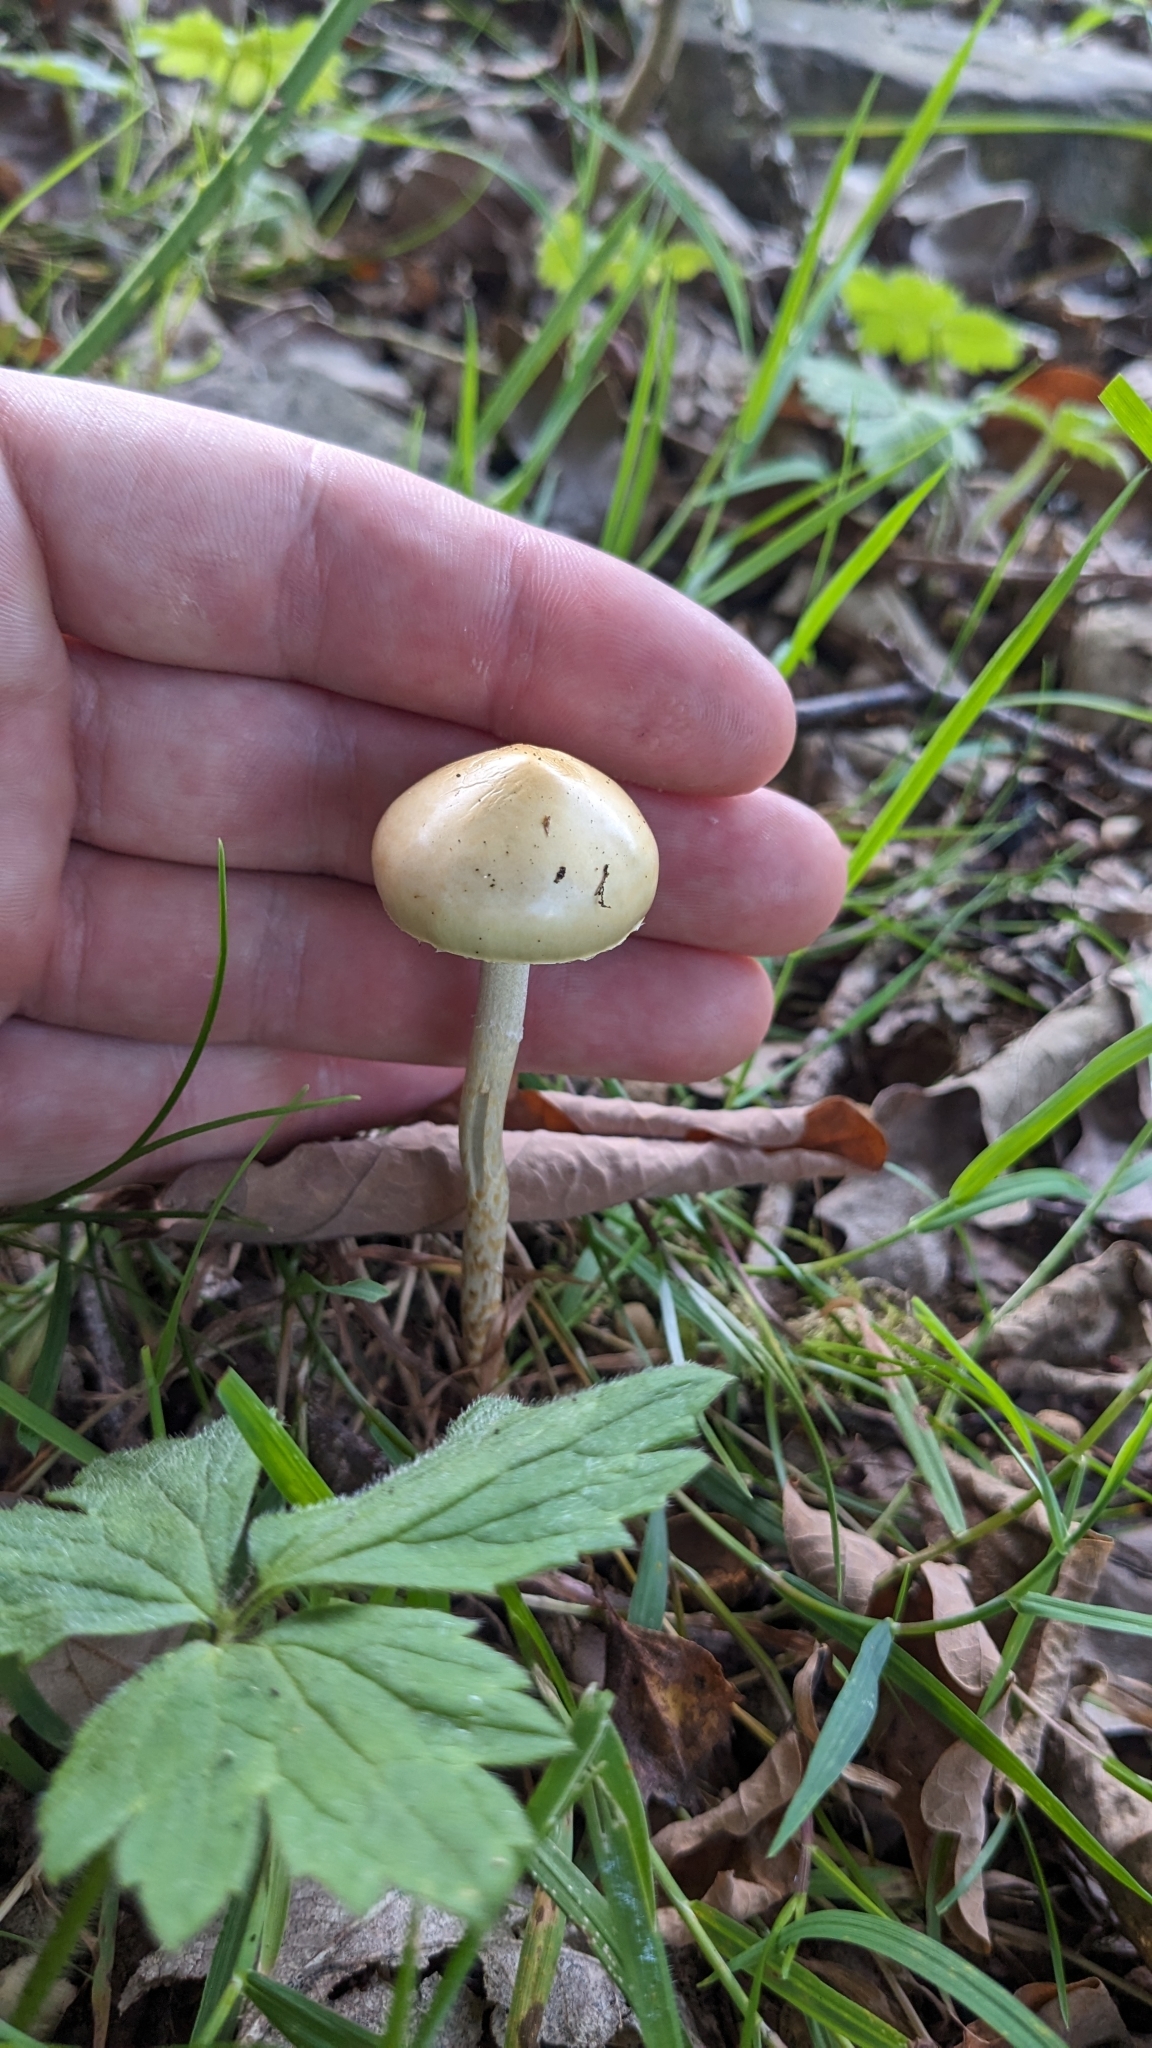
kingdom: Fungi
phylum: Basidiomycota
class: Agaricomycetes
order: Agaricales
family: Strophariaceae
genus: Protostropharia
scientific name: Protostropharia semiglobata
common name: Dung roundhead
